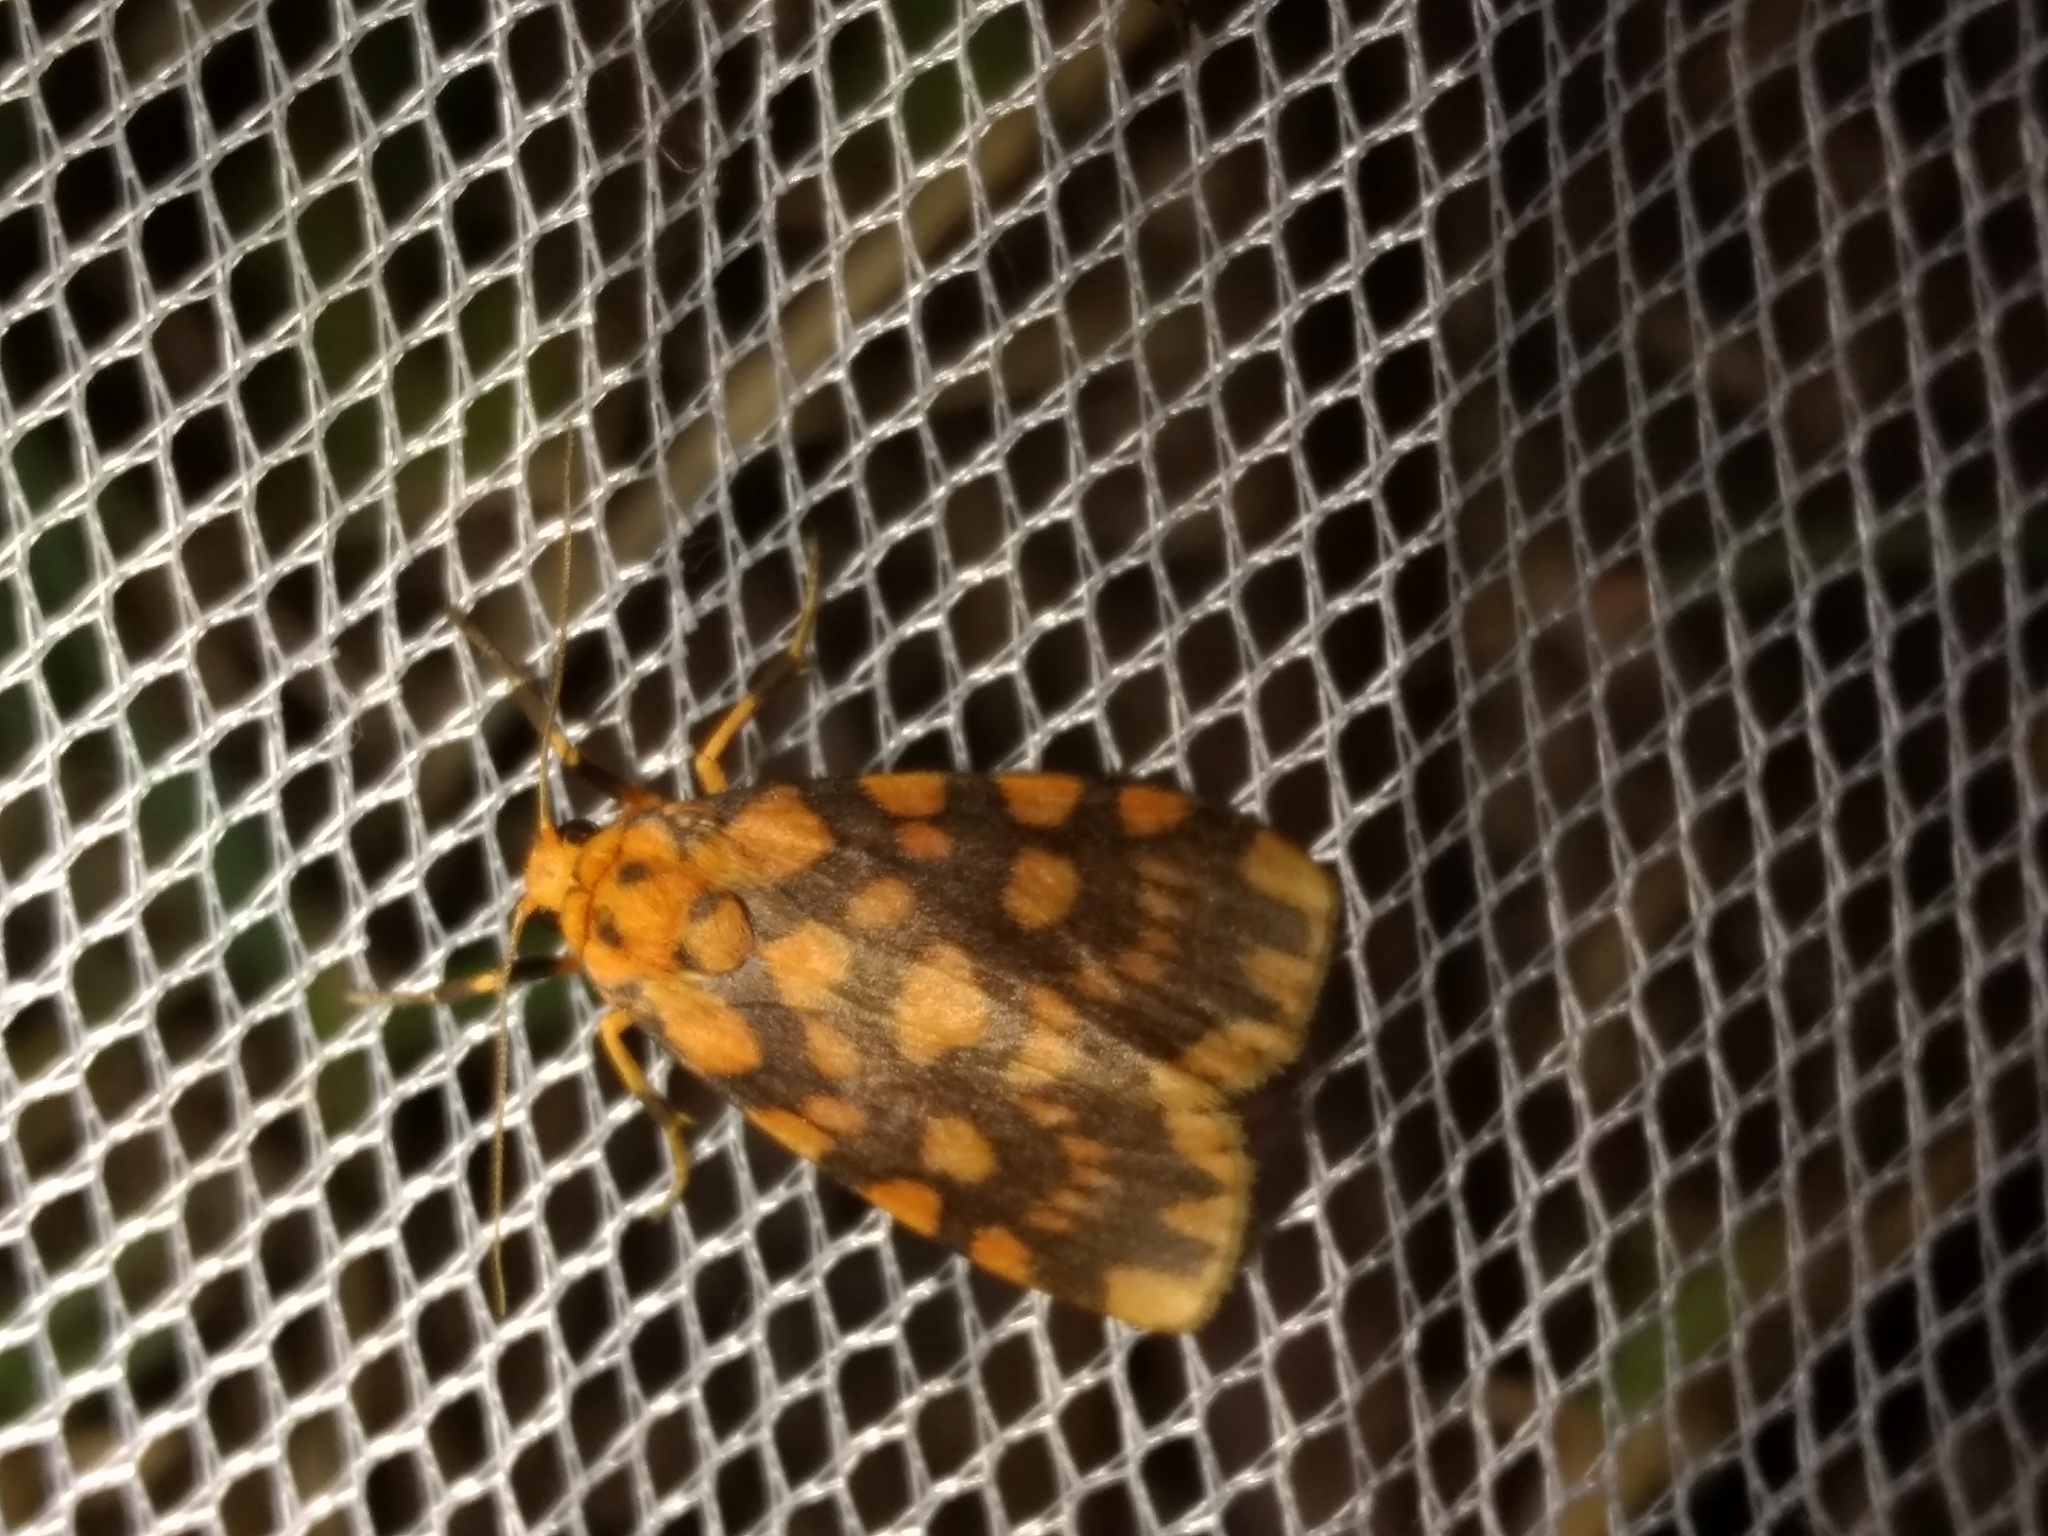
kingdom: Animalia
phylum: Arthropoda
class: Insecta
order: Lepidoptera
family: Erebidae
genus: Cyme
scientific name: Cyme quadrilineata
